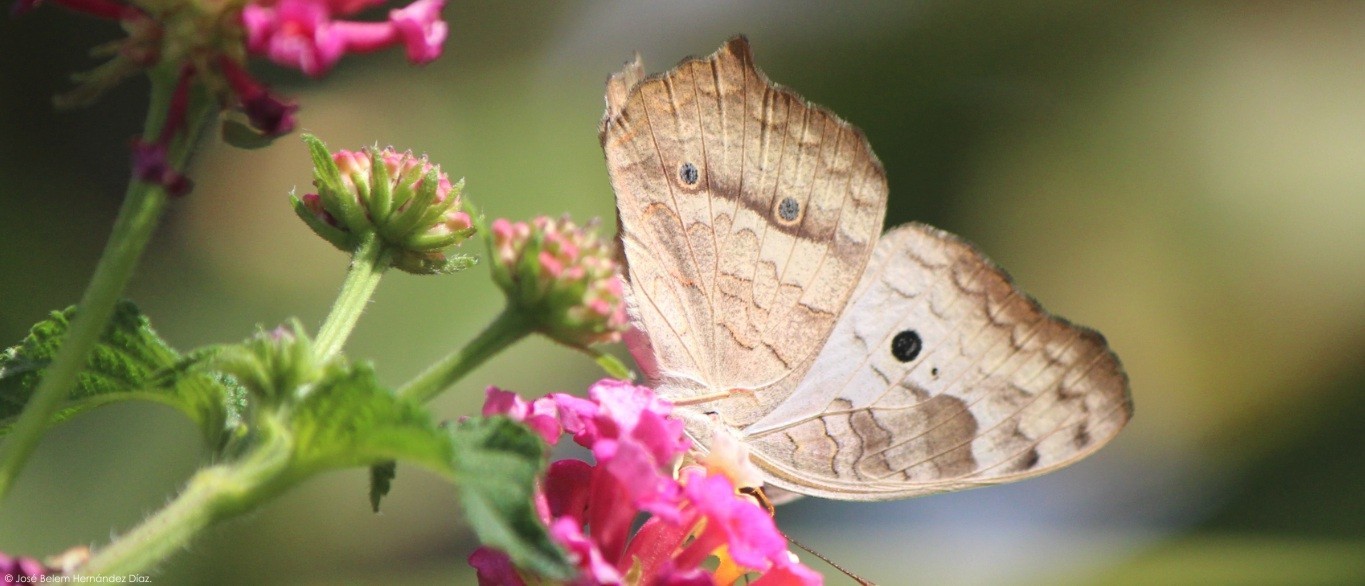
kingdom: Animalia
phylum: Arthropoda
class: Insecta
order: Lepidoptera
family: Nymphalidae
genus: Anartia
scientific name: Anartia jatrophae
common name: White peacock
